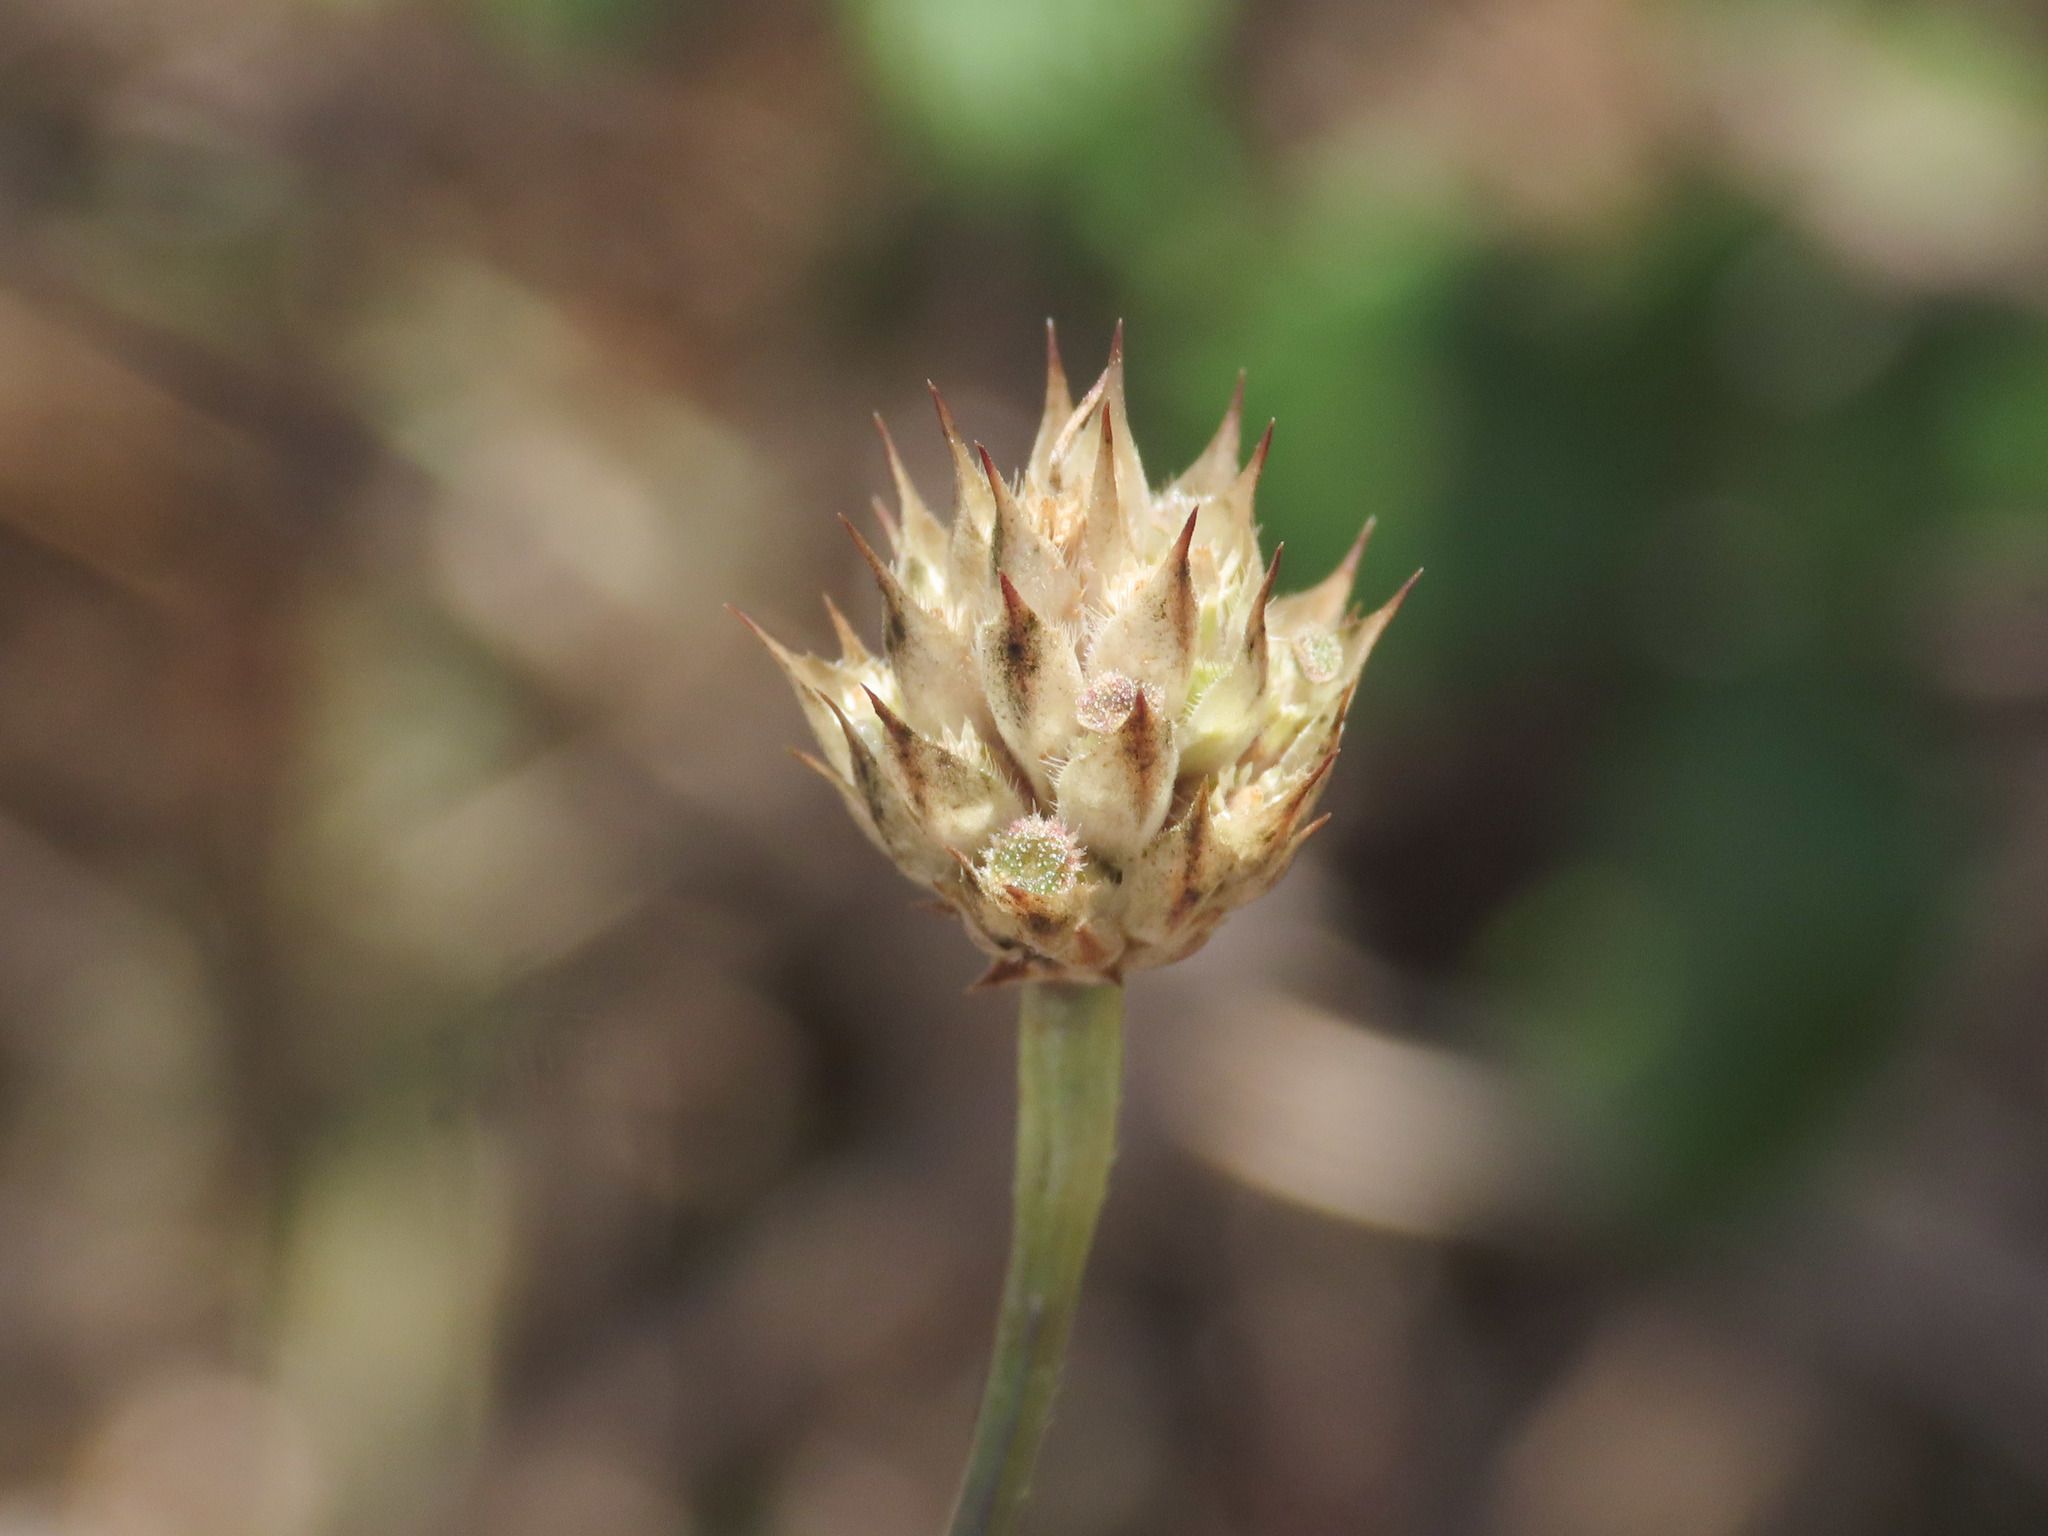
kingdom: Plantae
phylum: Tracheophyta
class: Magnoliopsida
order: Dipsacales
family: Caprifoliaceae
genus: Cephalaria
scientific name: Cephalaria transsylvanica
